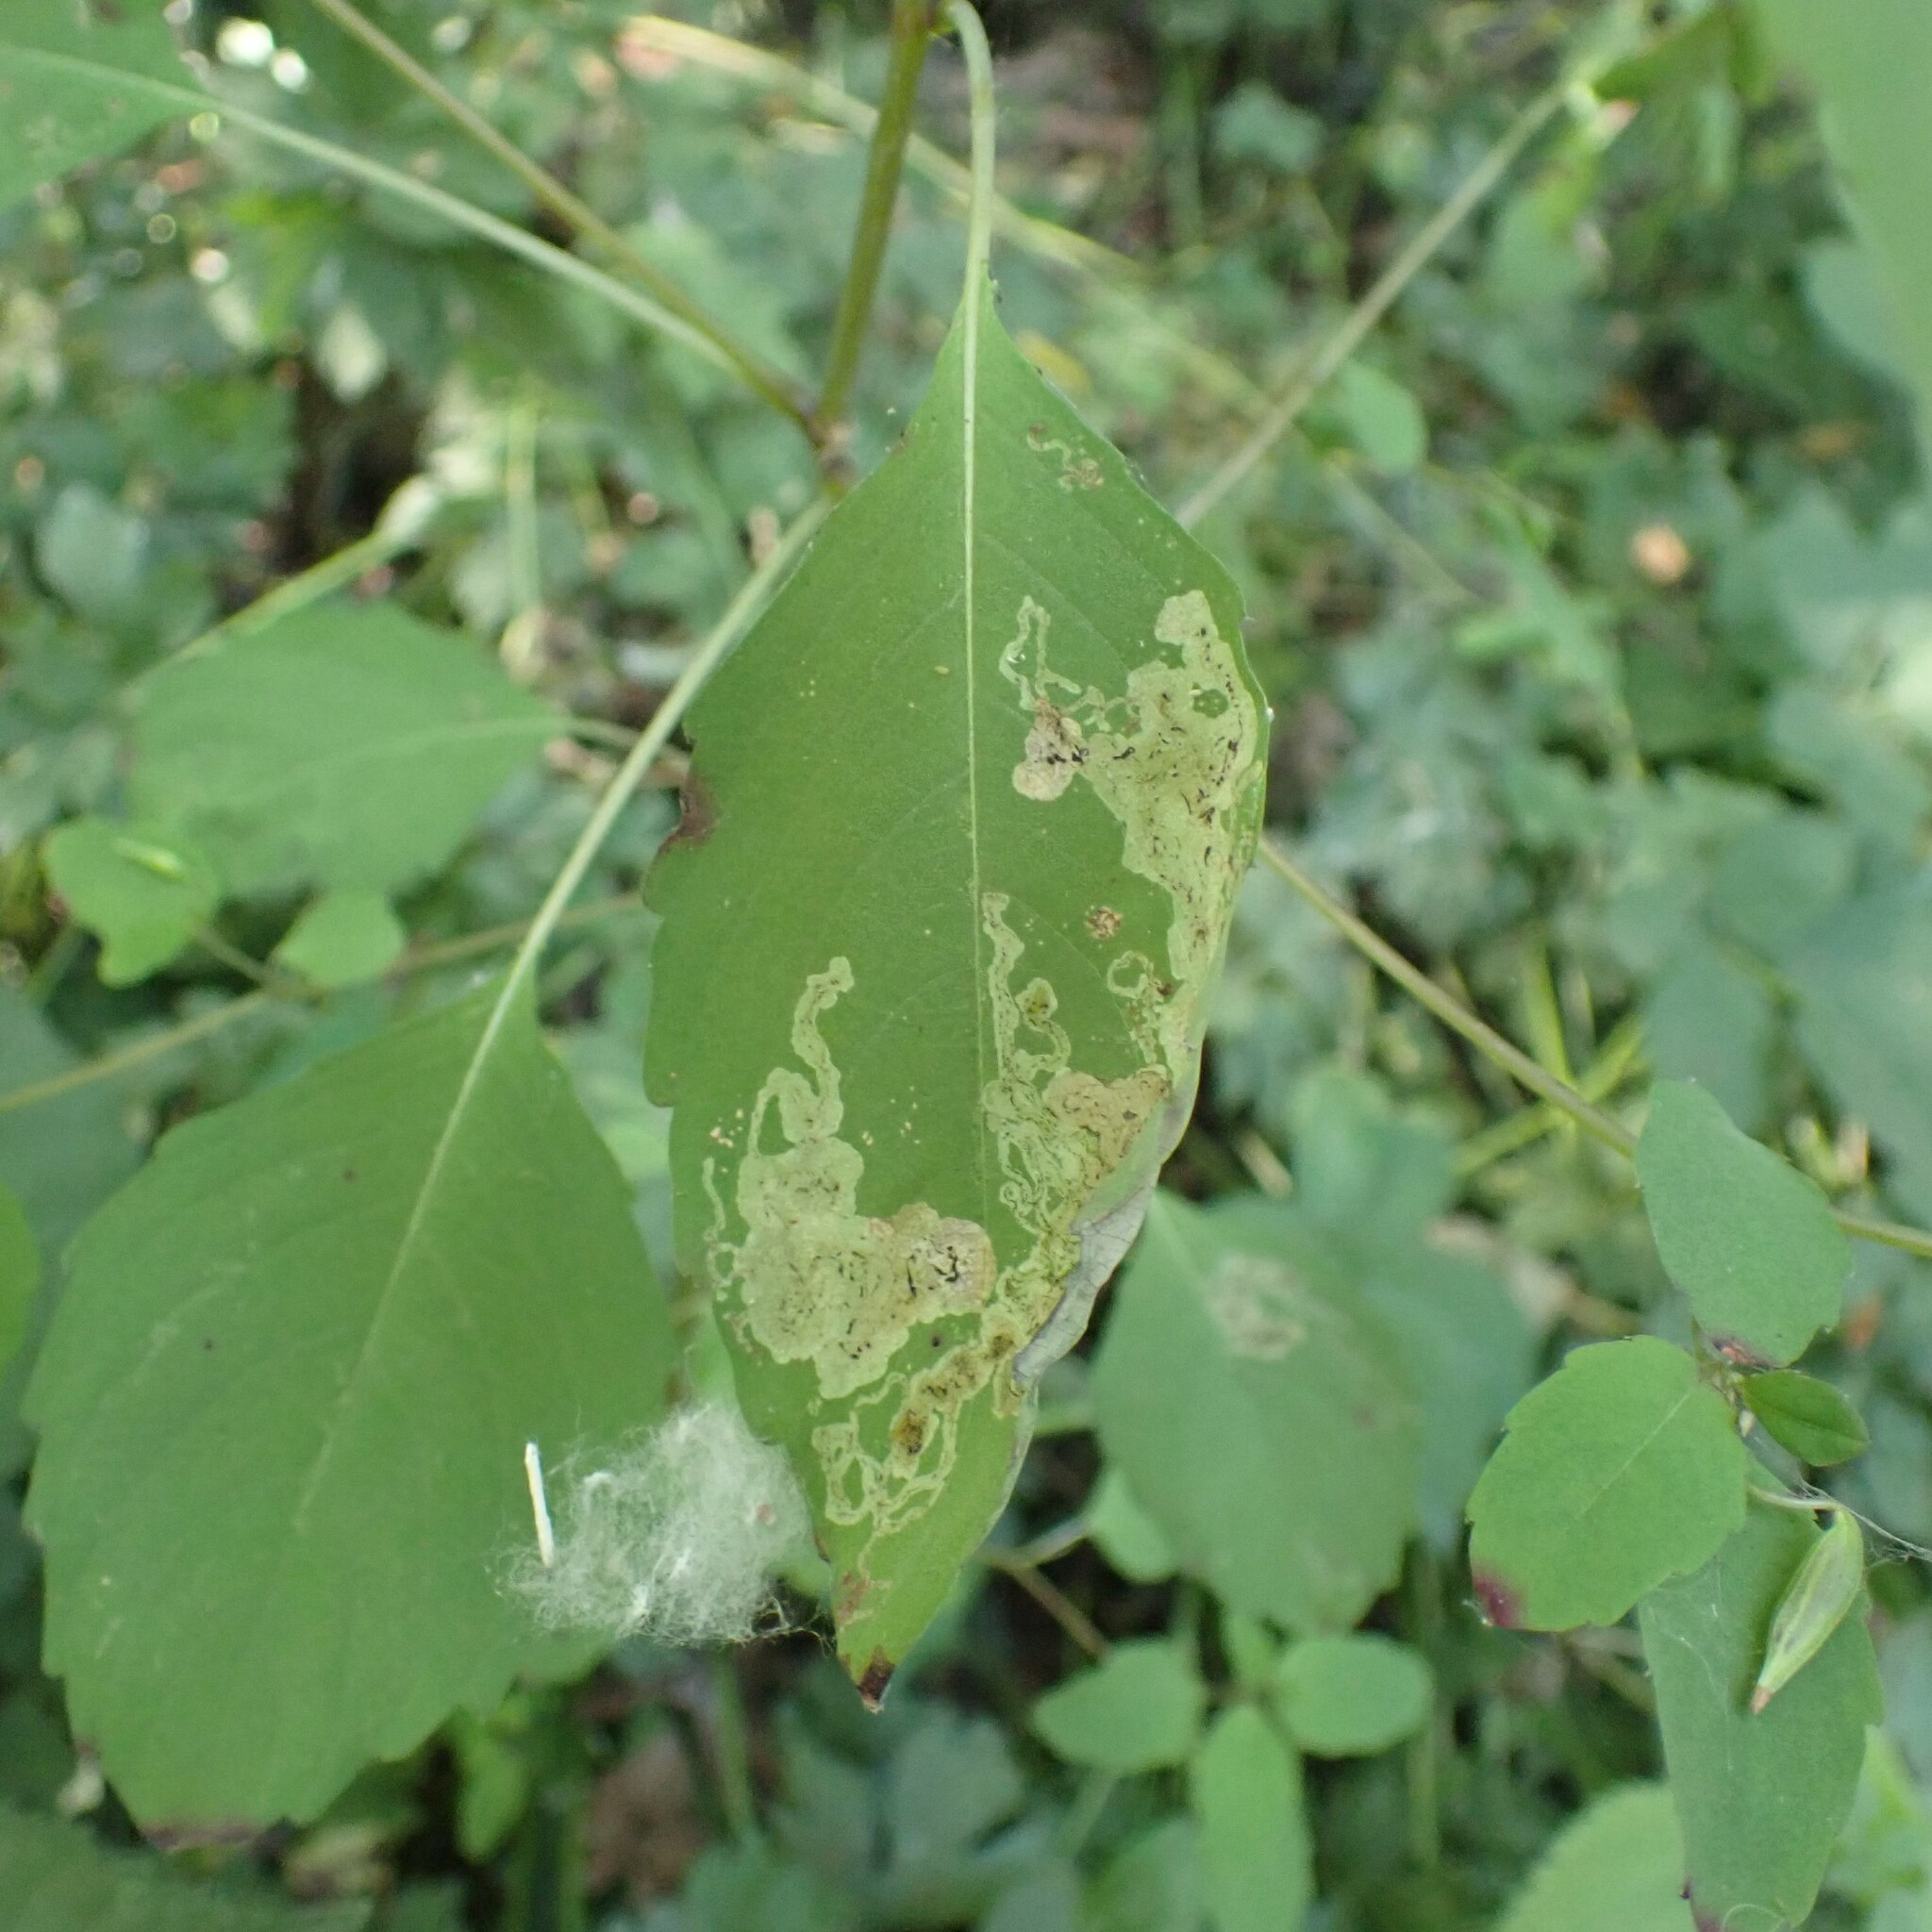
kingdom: Animalia
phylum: Arthropoda
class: Insecta
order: Diptera
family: Agromyzidae
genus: Phytoliriomyza
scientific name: Phytoliriomyza melampyga
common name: Jewelweed leaf-miner fly
